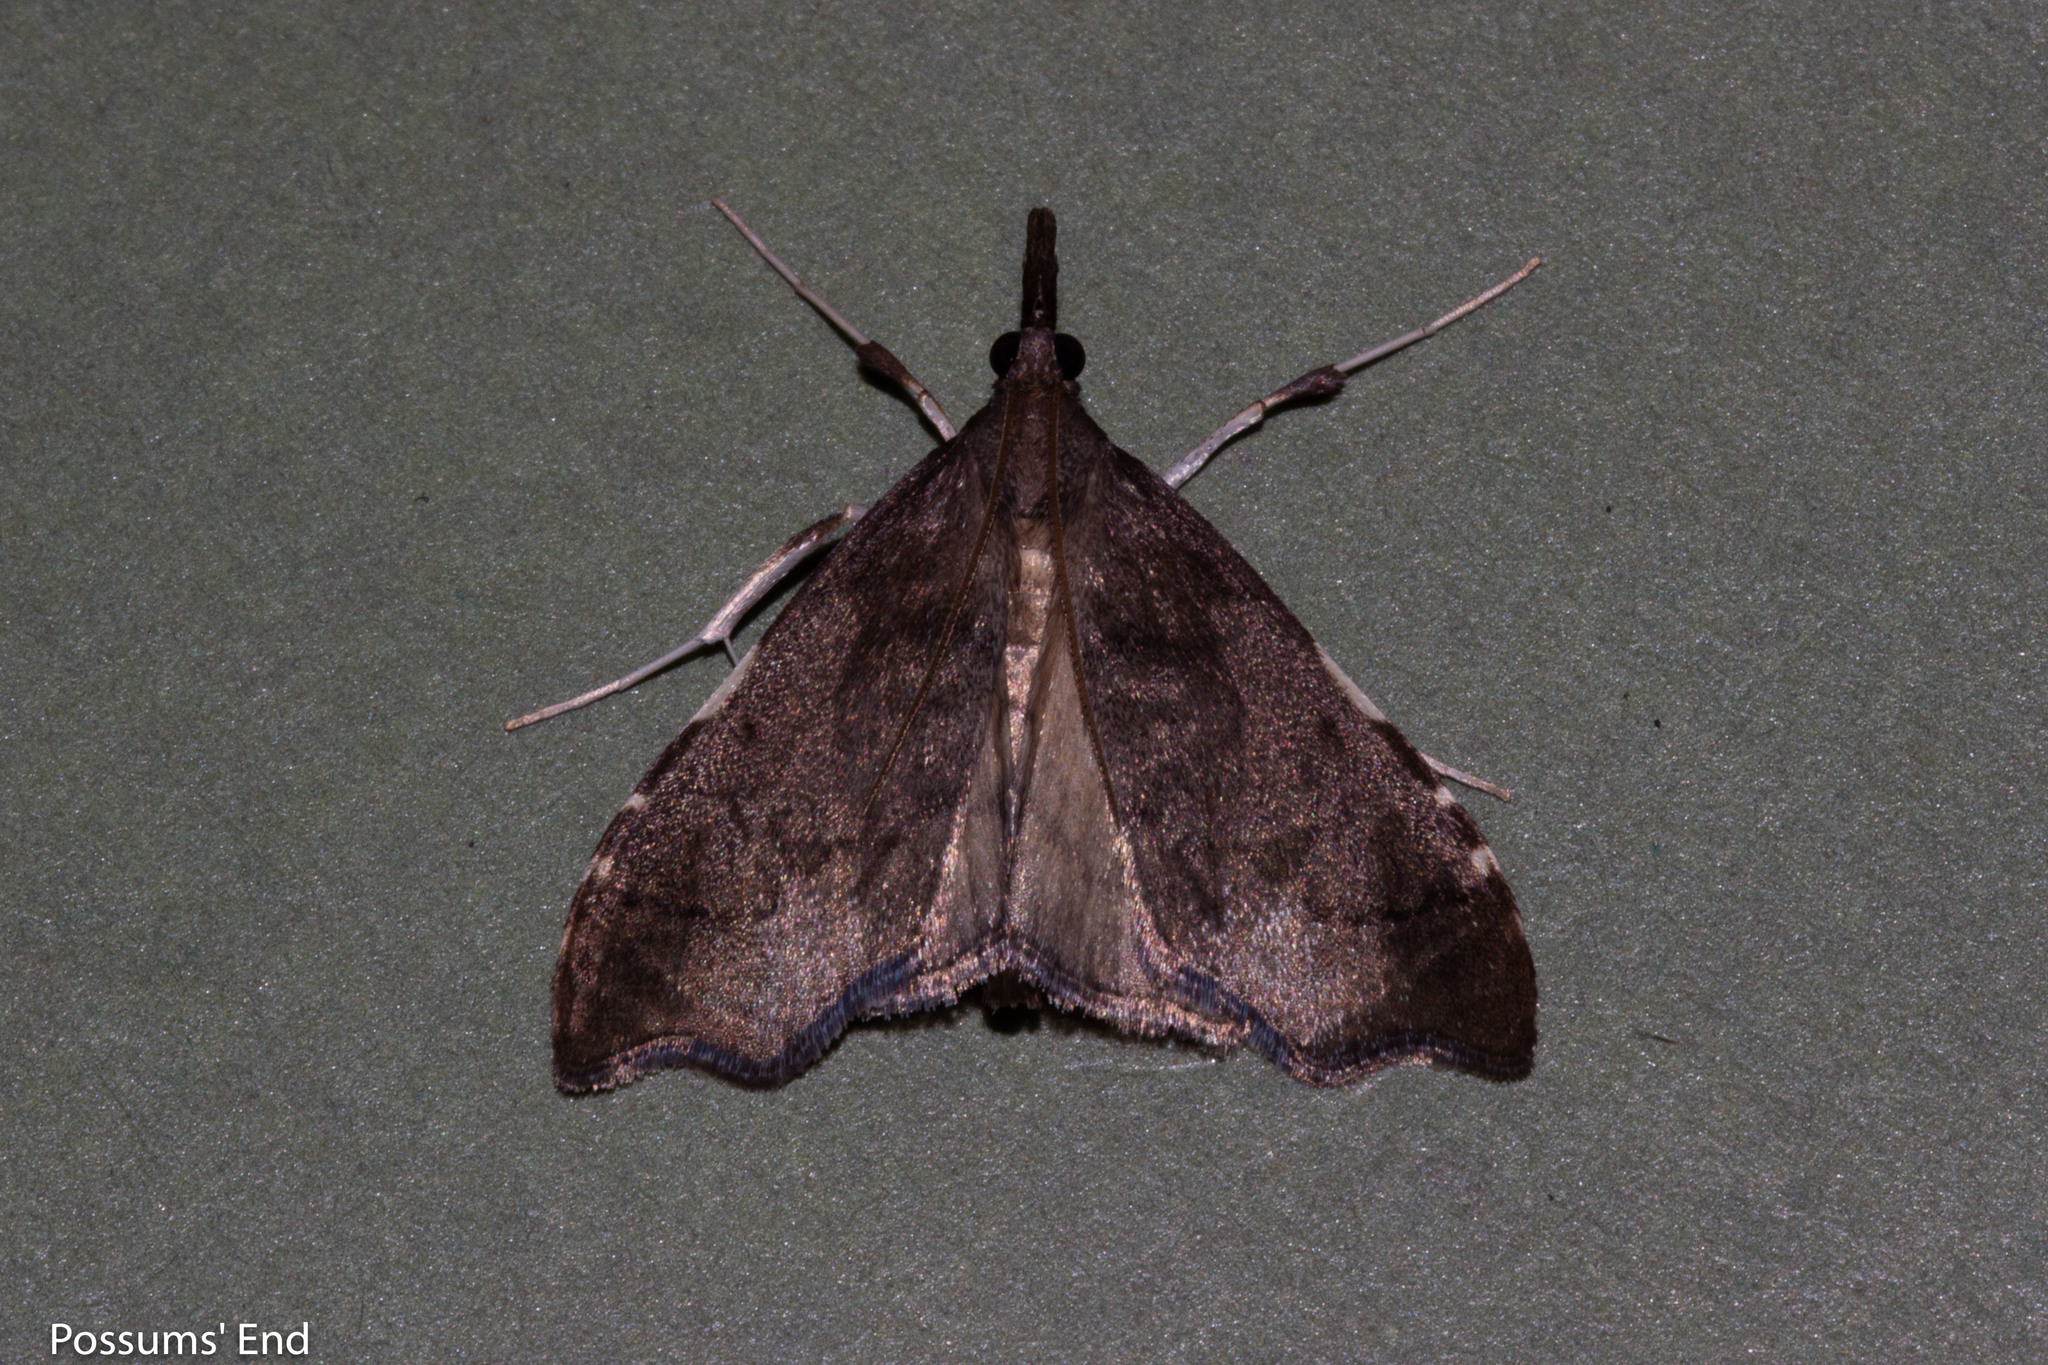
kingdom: Animalia
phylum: Arthropoda
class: Insecta
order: Lepidoptera
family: Crambidae
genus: Deana
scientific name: Deana hybreasalis
